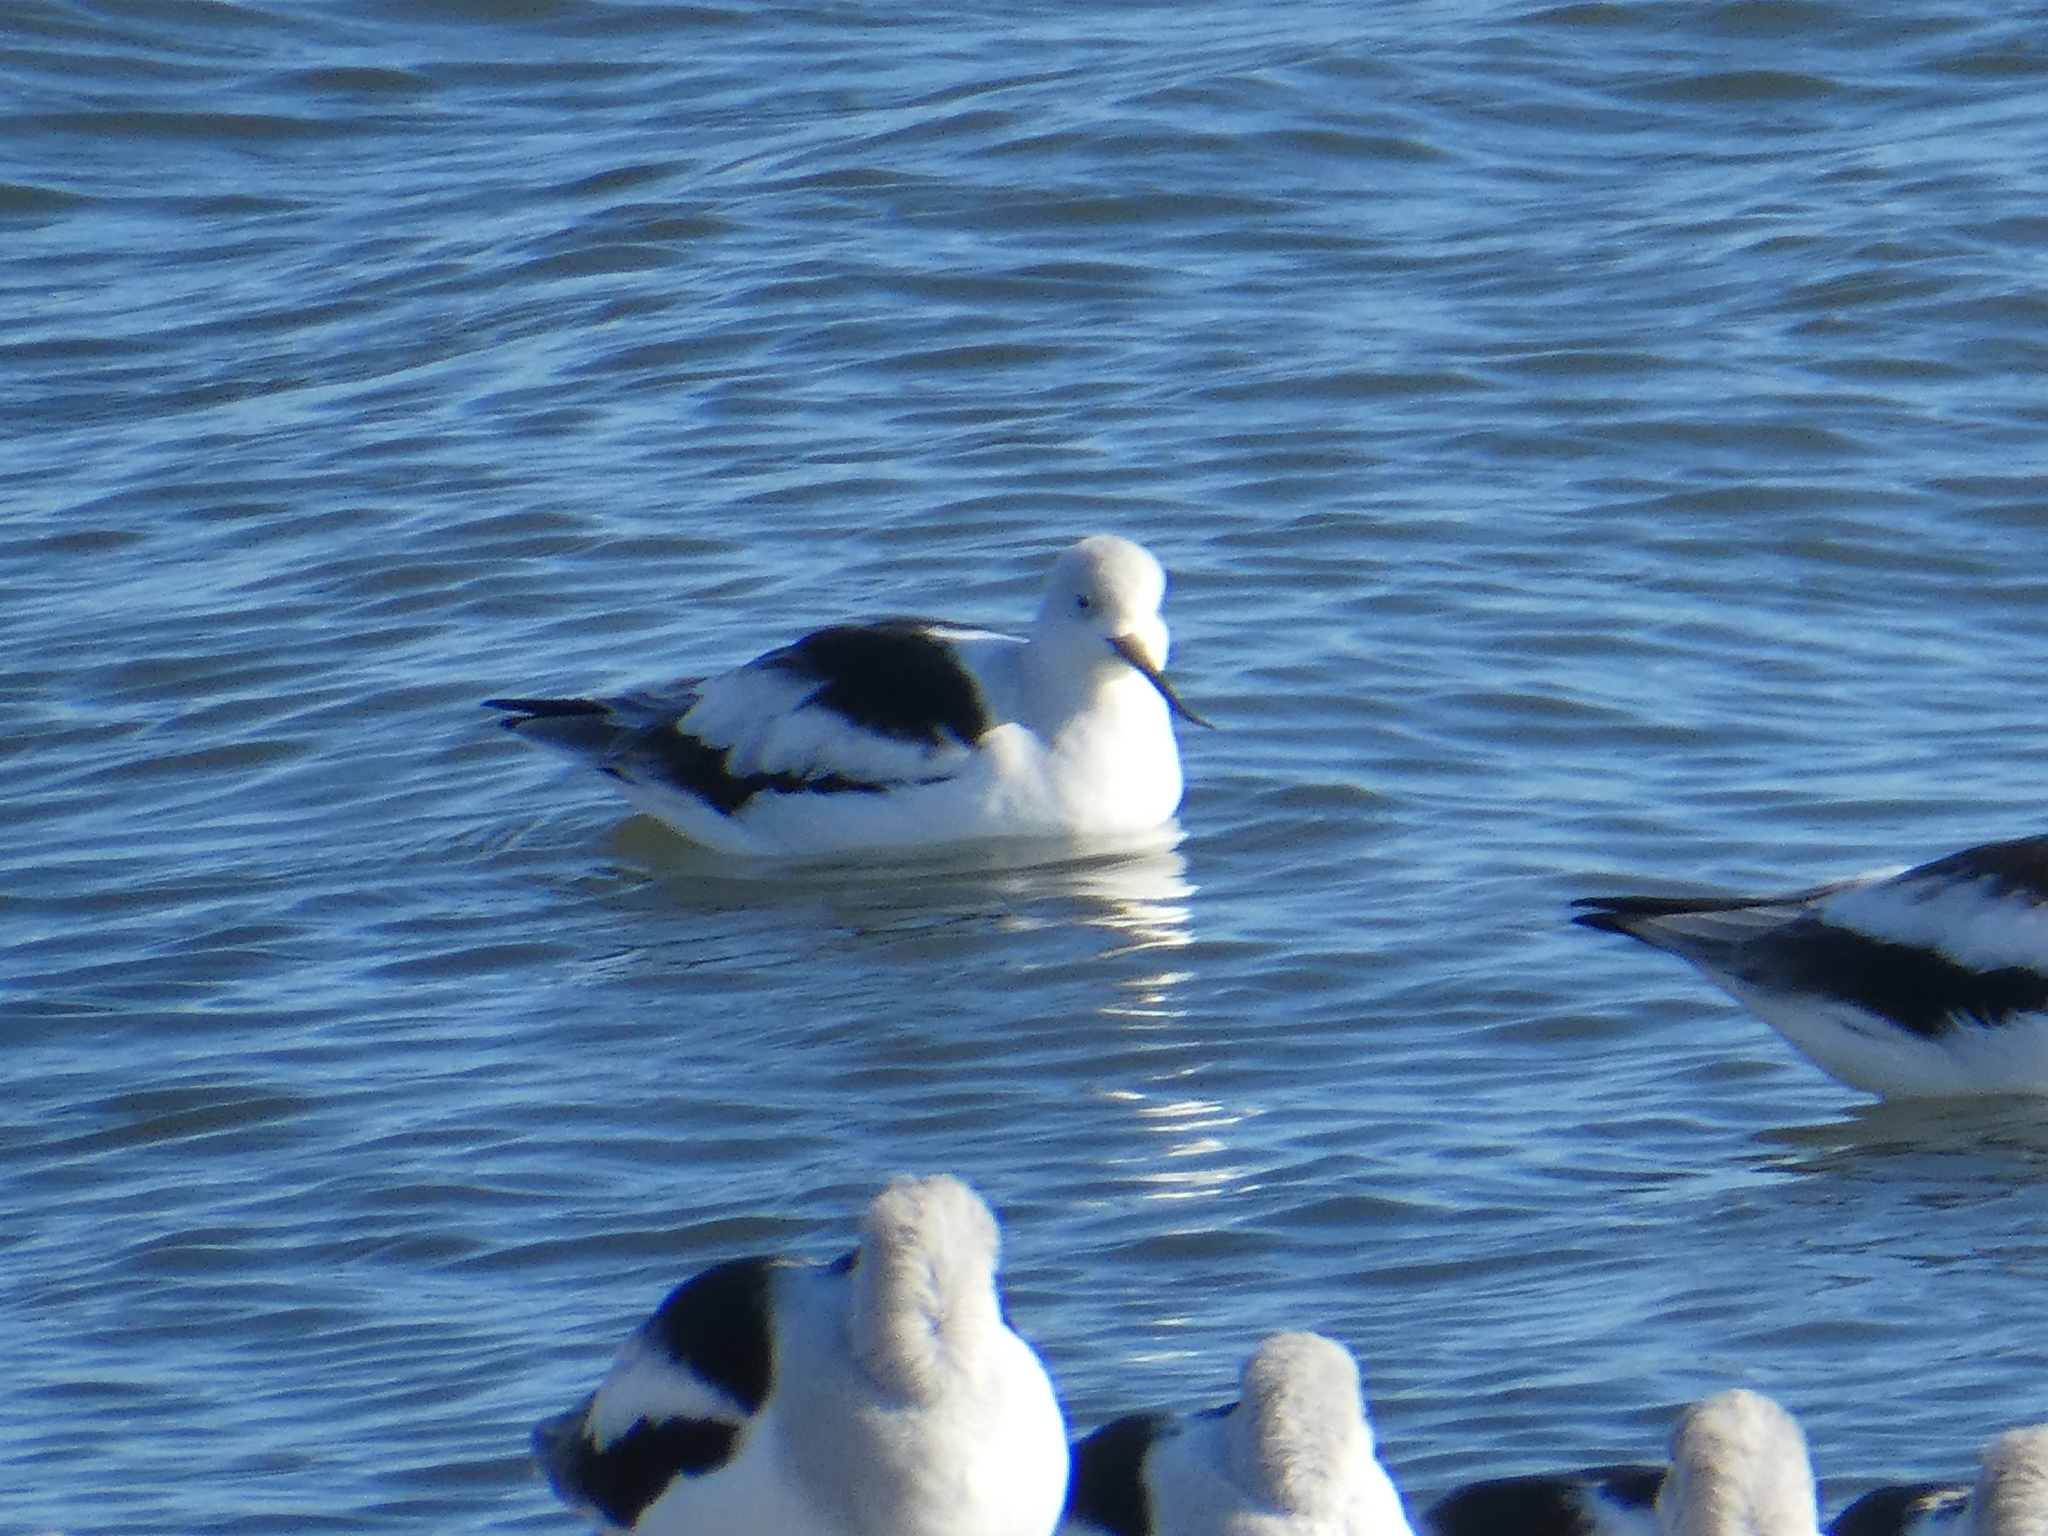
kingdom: Animalia
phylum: Chordata
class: Aves
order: Charadriiformes
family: Recurvirostridae
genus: Recurvirostra
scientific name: Recurvirostra americana
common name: American avocet
